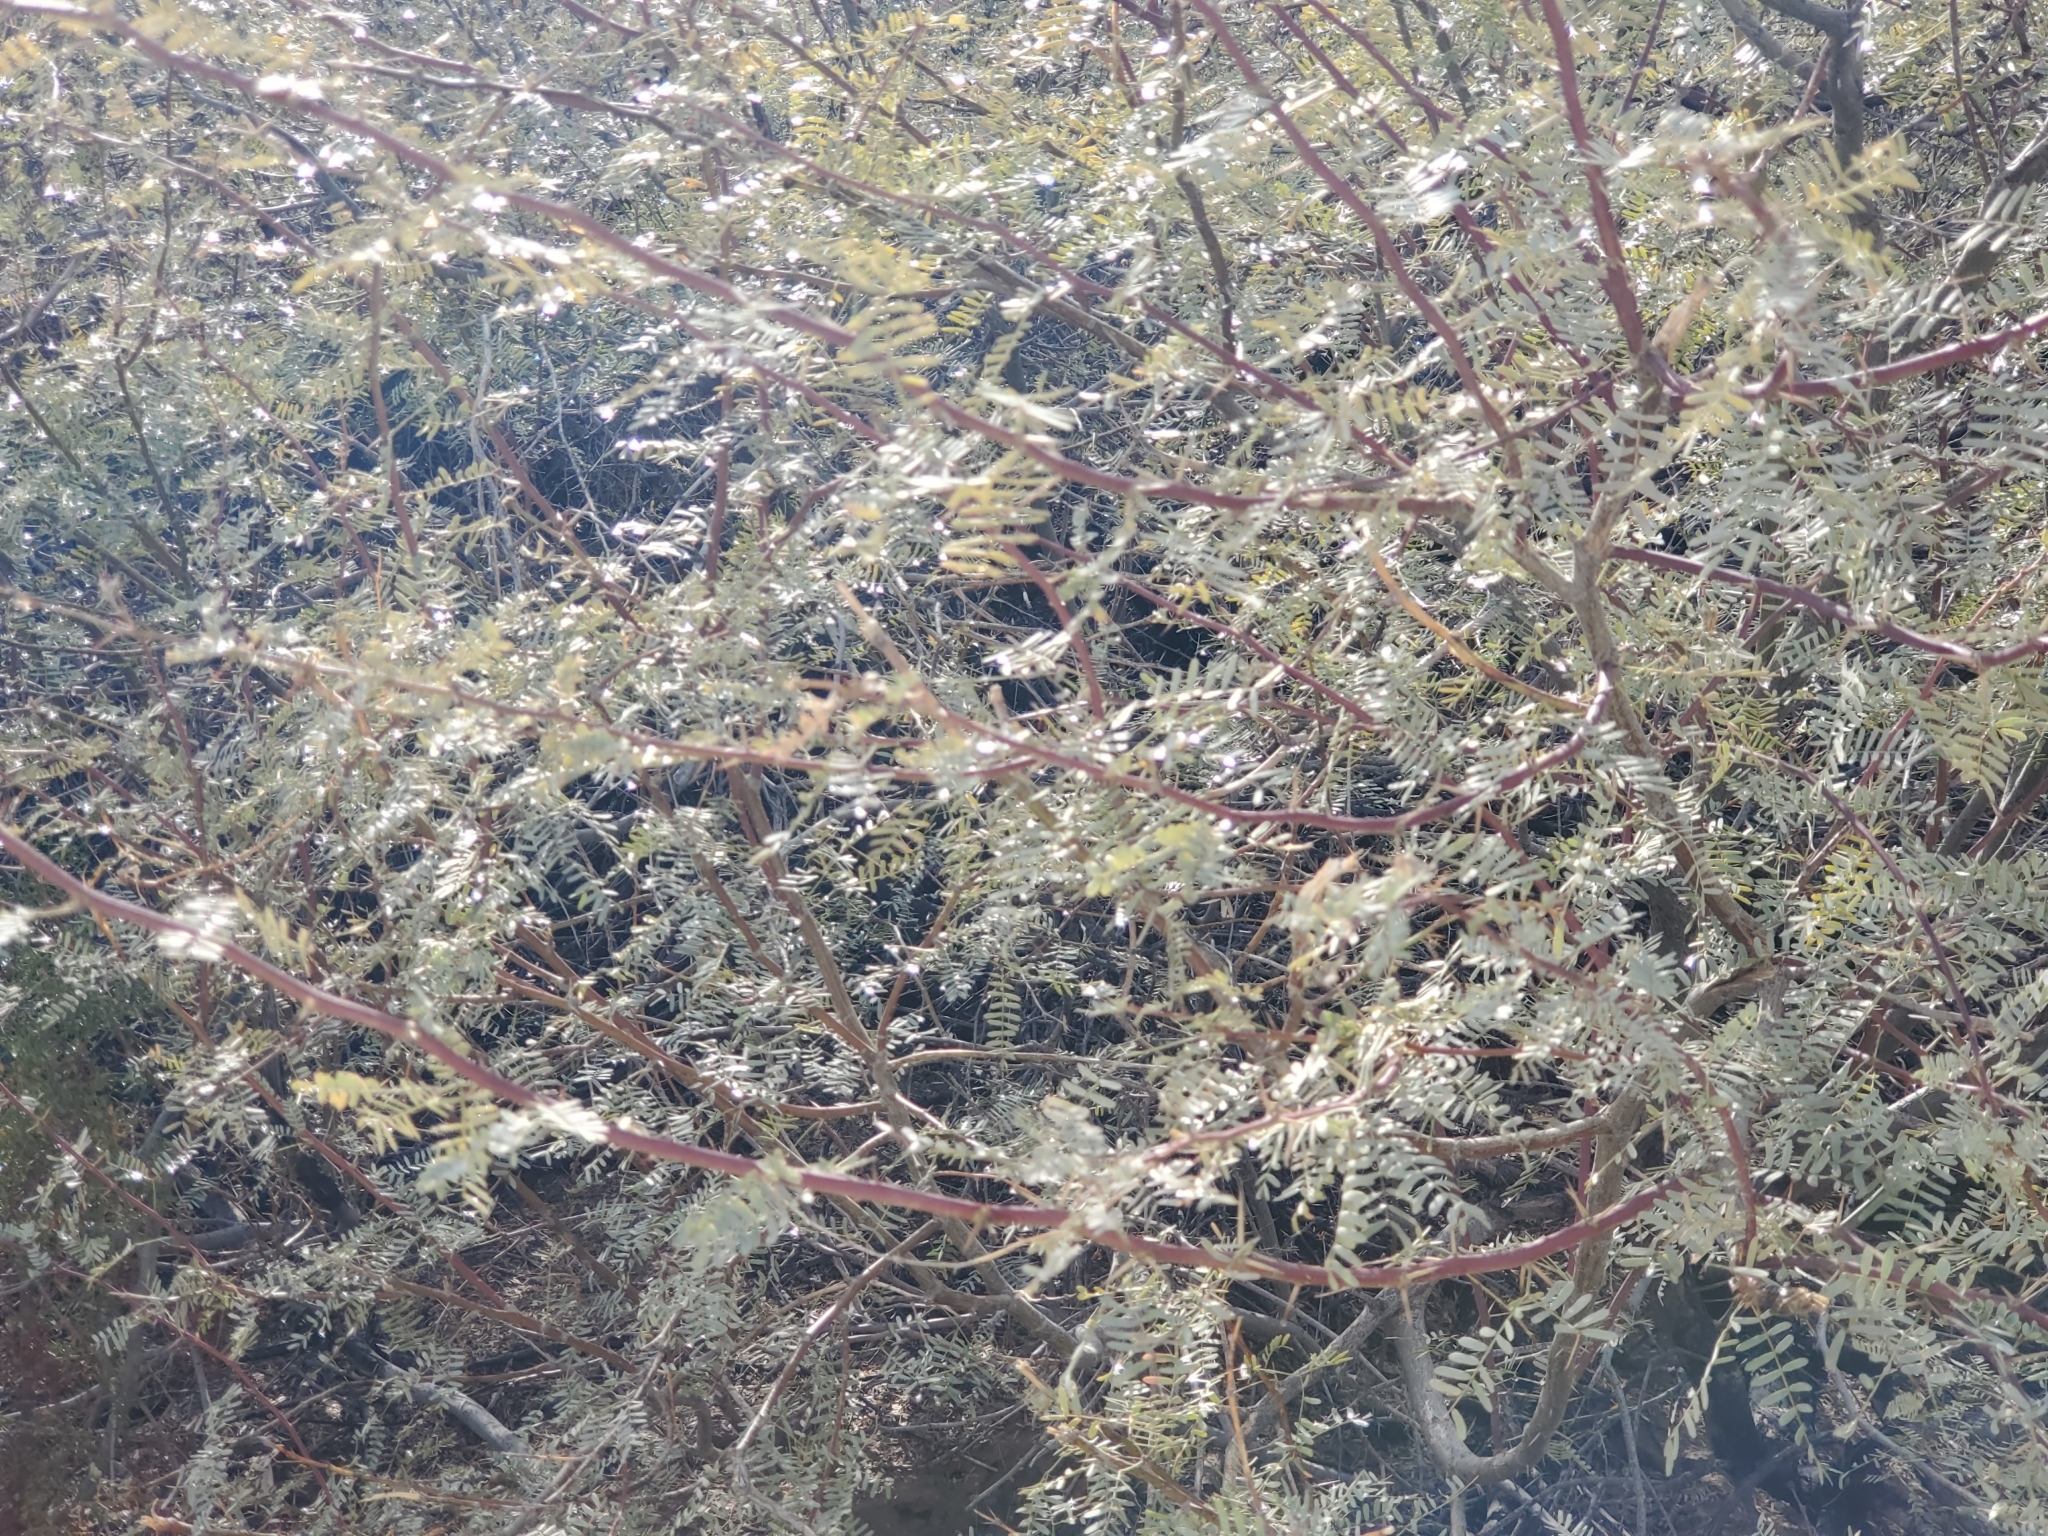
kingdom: Plantae
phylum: Tracheophyta
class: Magnoliopsida
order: Fabales
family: Fabaceae
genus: Prosopis
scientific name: Prosopis pubescens
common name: Screw-bean
